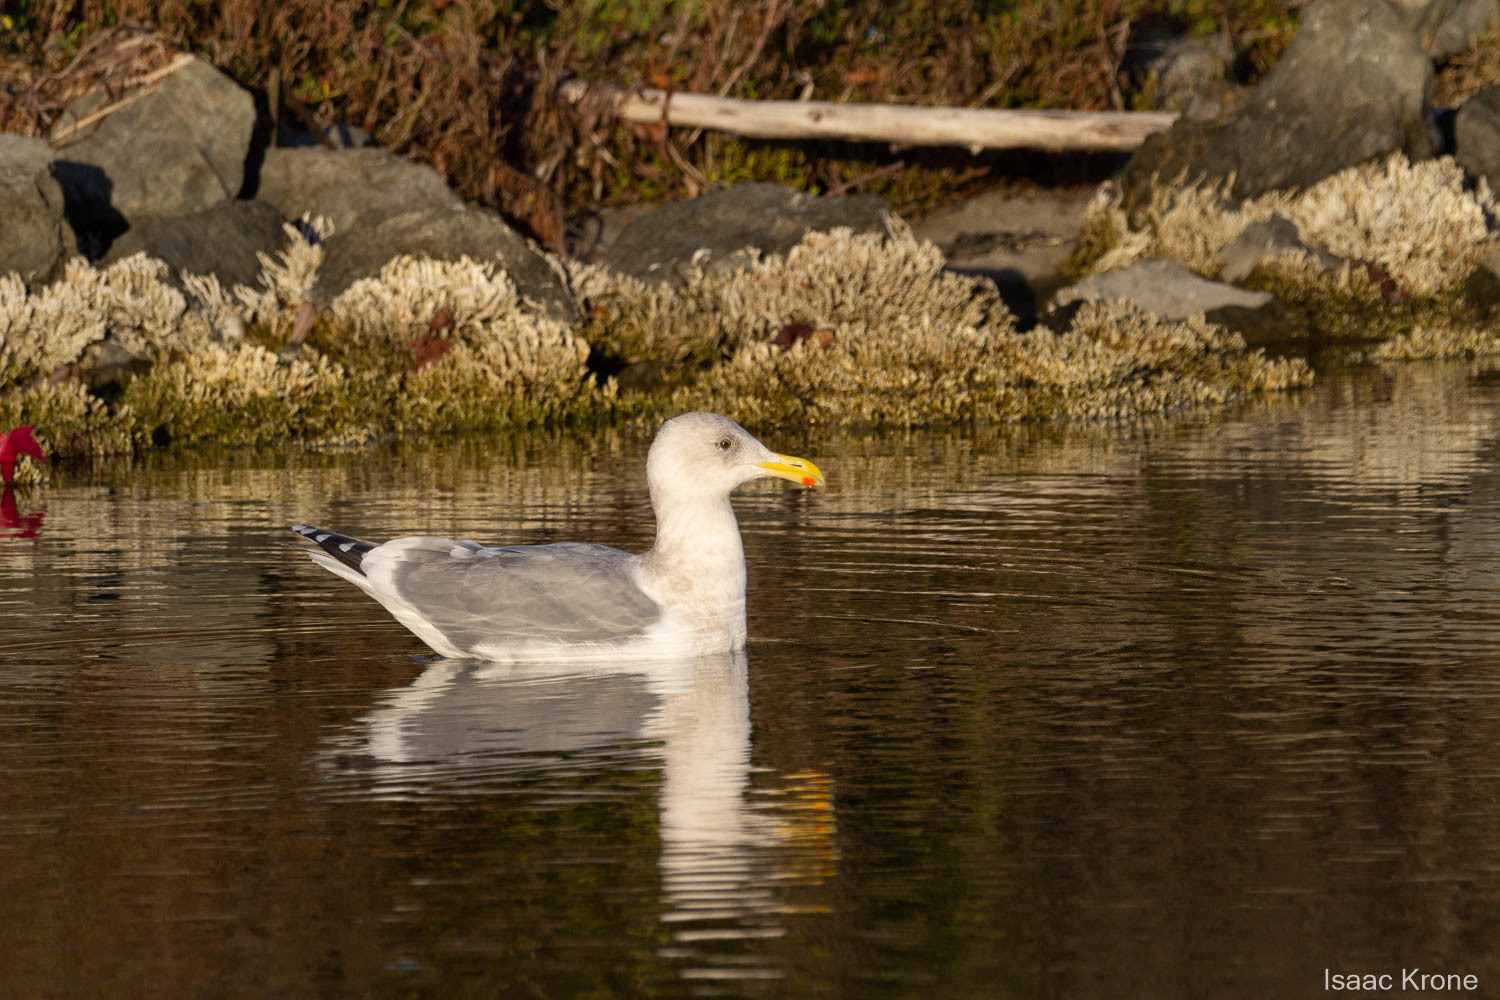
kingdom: Animalia
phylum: Chordata
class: Aves
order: Charadriiformes
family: Laridae
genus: Larus
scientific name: Larus occidentalis
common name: Western gull
